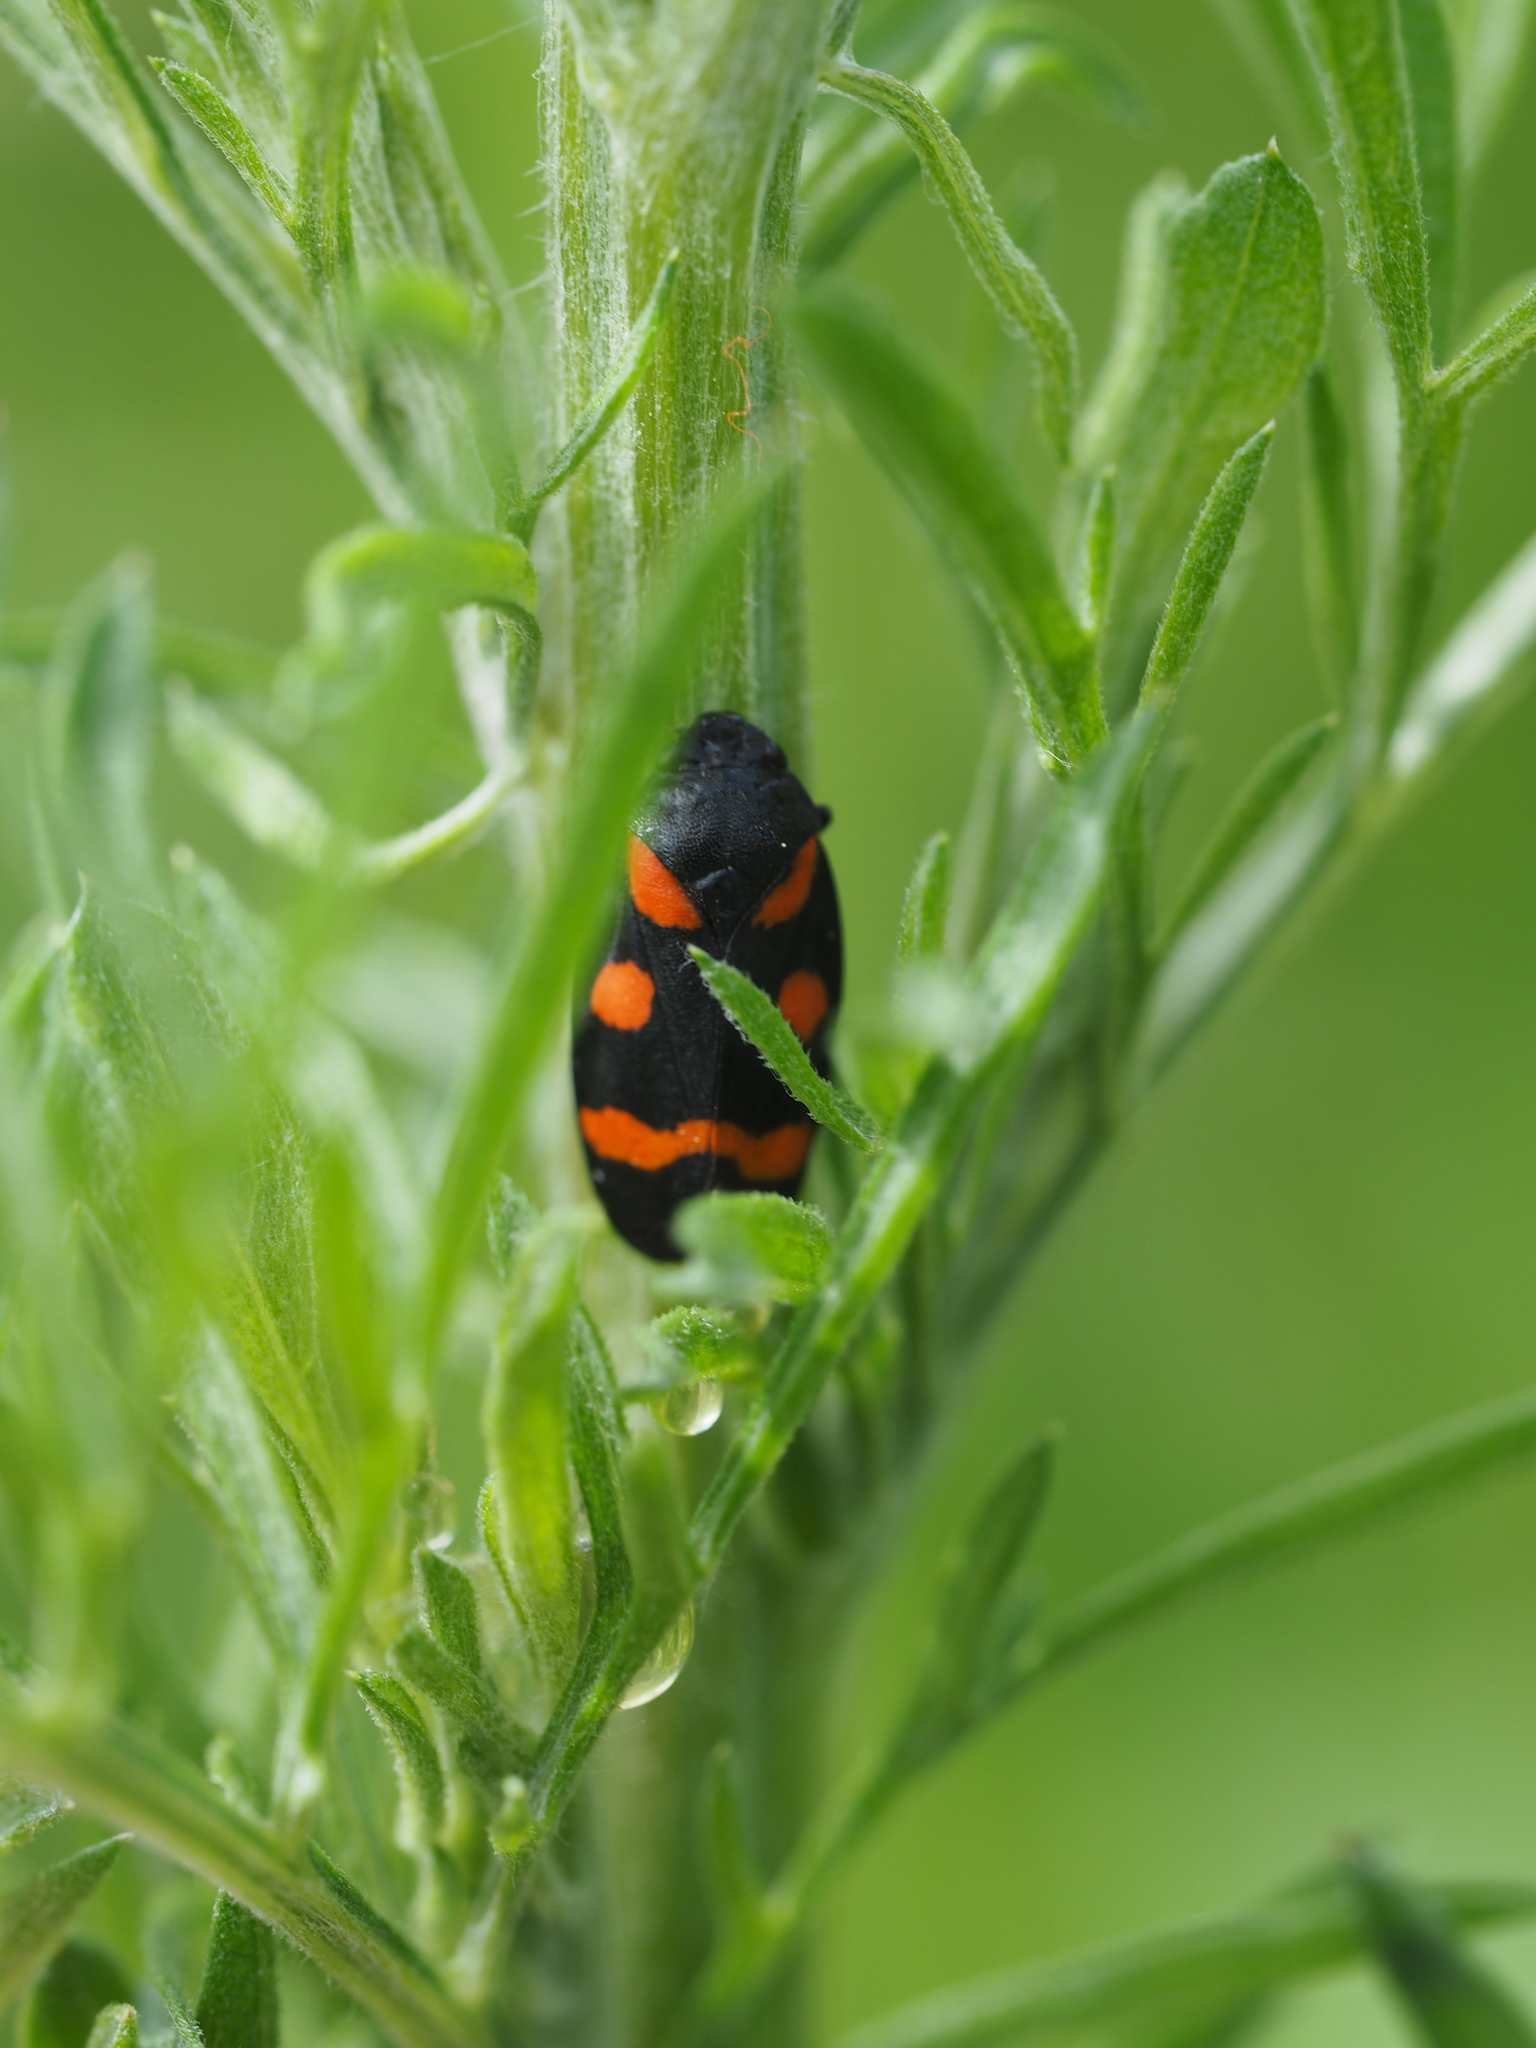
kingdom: Animalia
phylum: Arthropoda
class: Insecta
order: Hemiptera
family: Cercopidae
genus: Cercopis
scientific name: Cercopis arcuata
